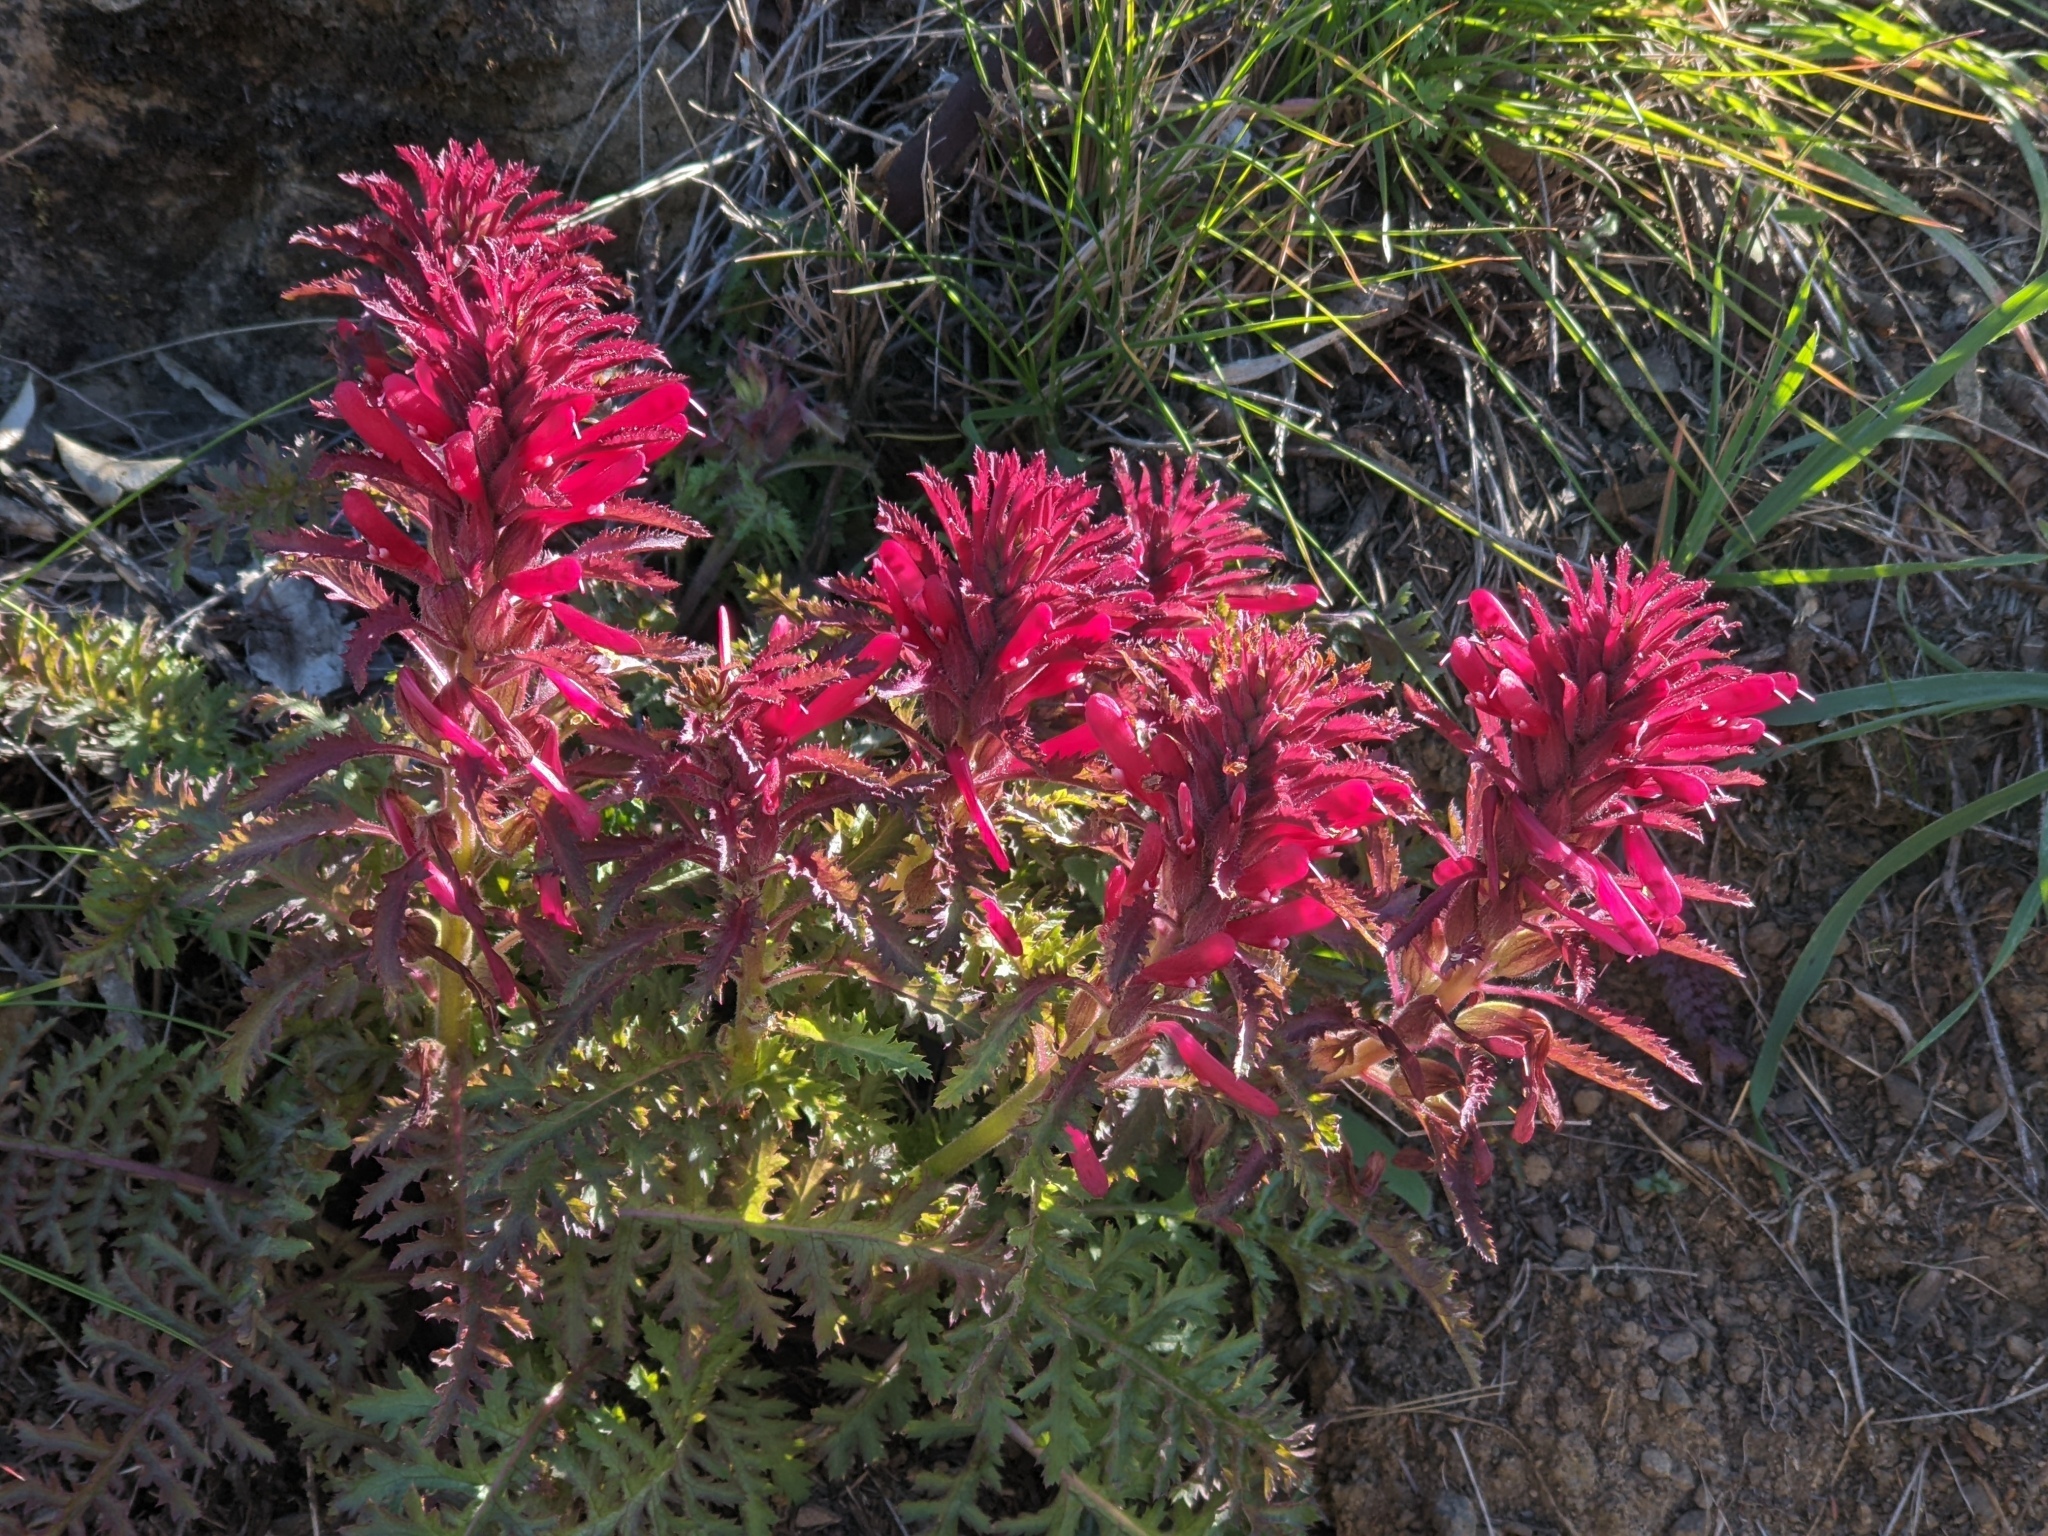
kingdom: Plantae
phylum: Tracheophyta
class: Magnoliopsida
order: Lamiales
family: Orobanchaceae
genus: Pedicularis
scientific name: Pedicularis densiflora
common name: Indian warrior
